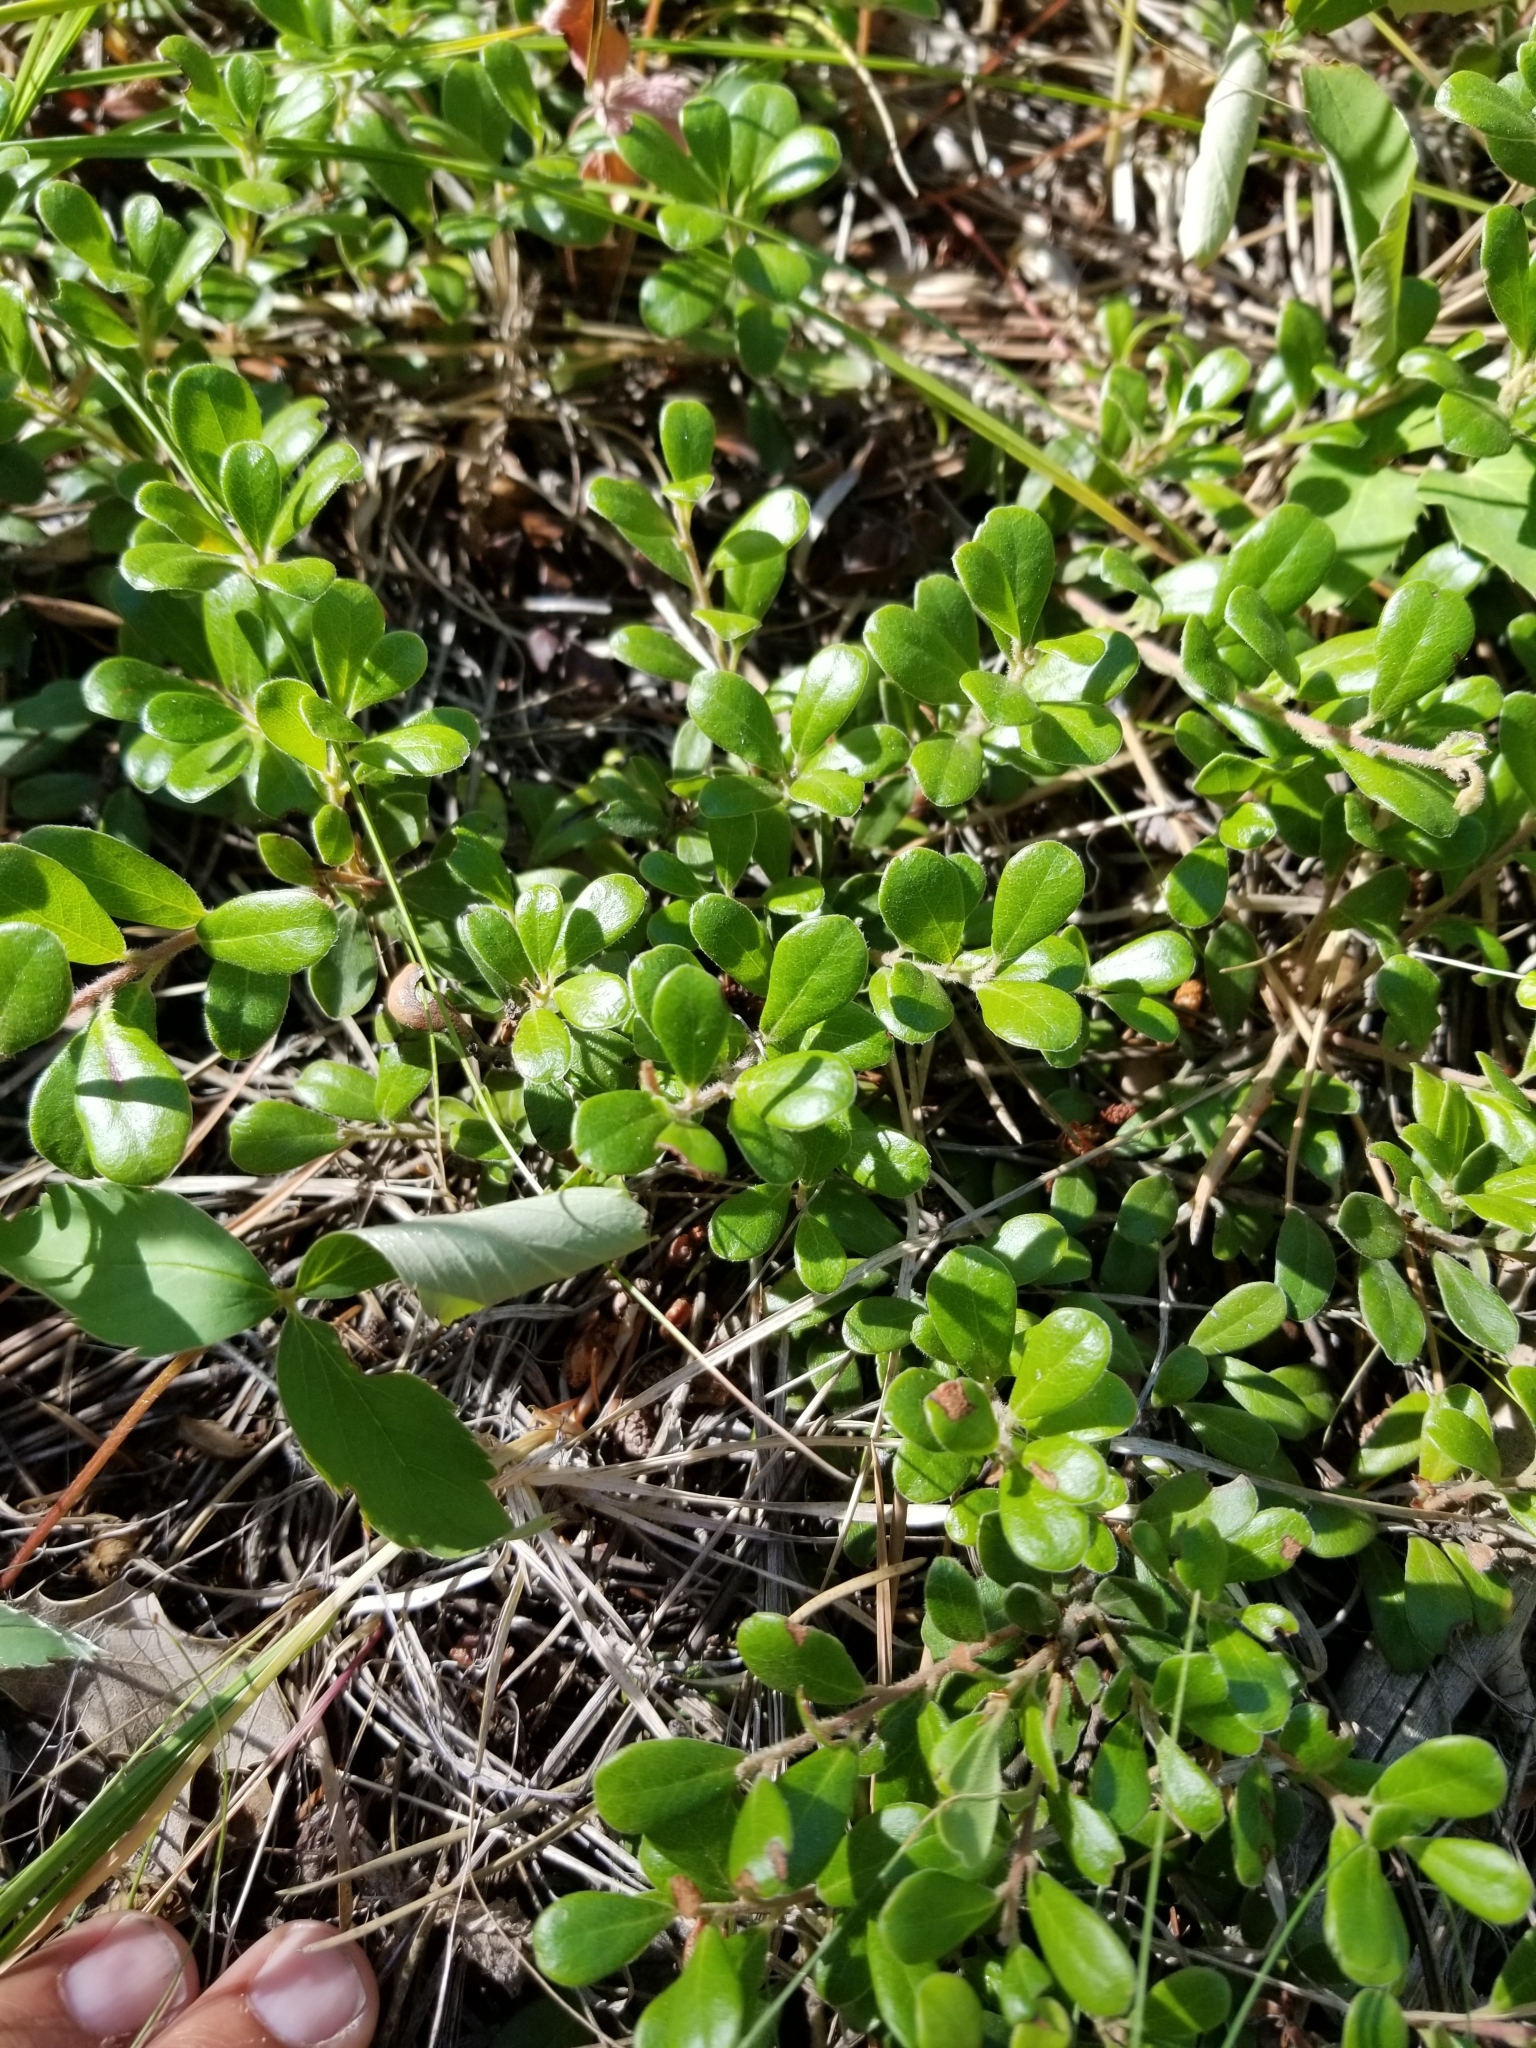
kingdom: Plantae
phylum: Tracheophyta
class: Magnoliopsida
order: Ericales
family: Ericaceae
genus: Arctostaphylos
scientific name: Arctostaphylos uva-ursi
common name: Bearberry
